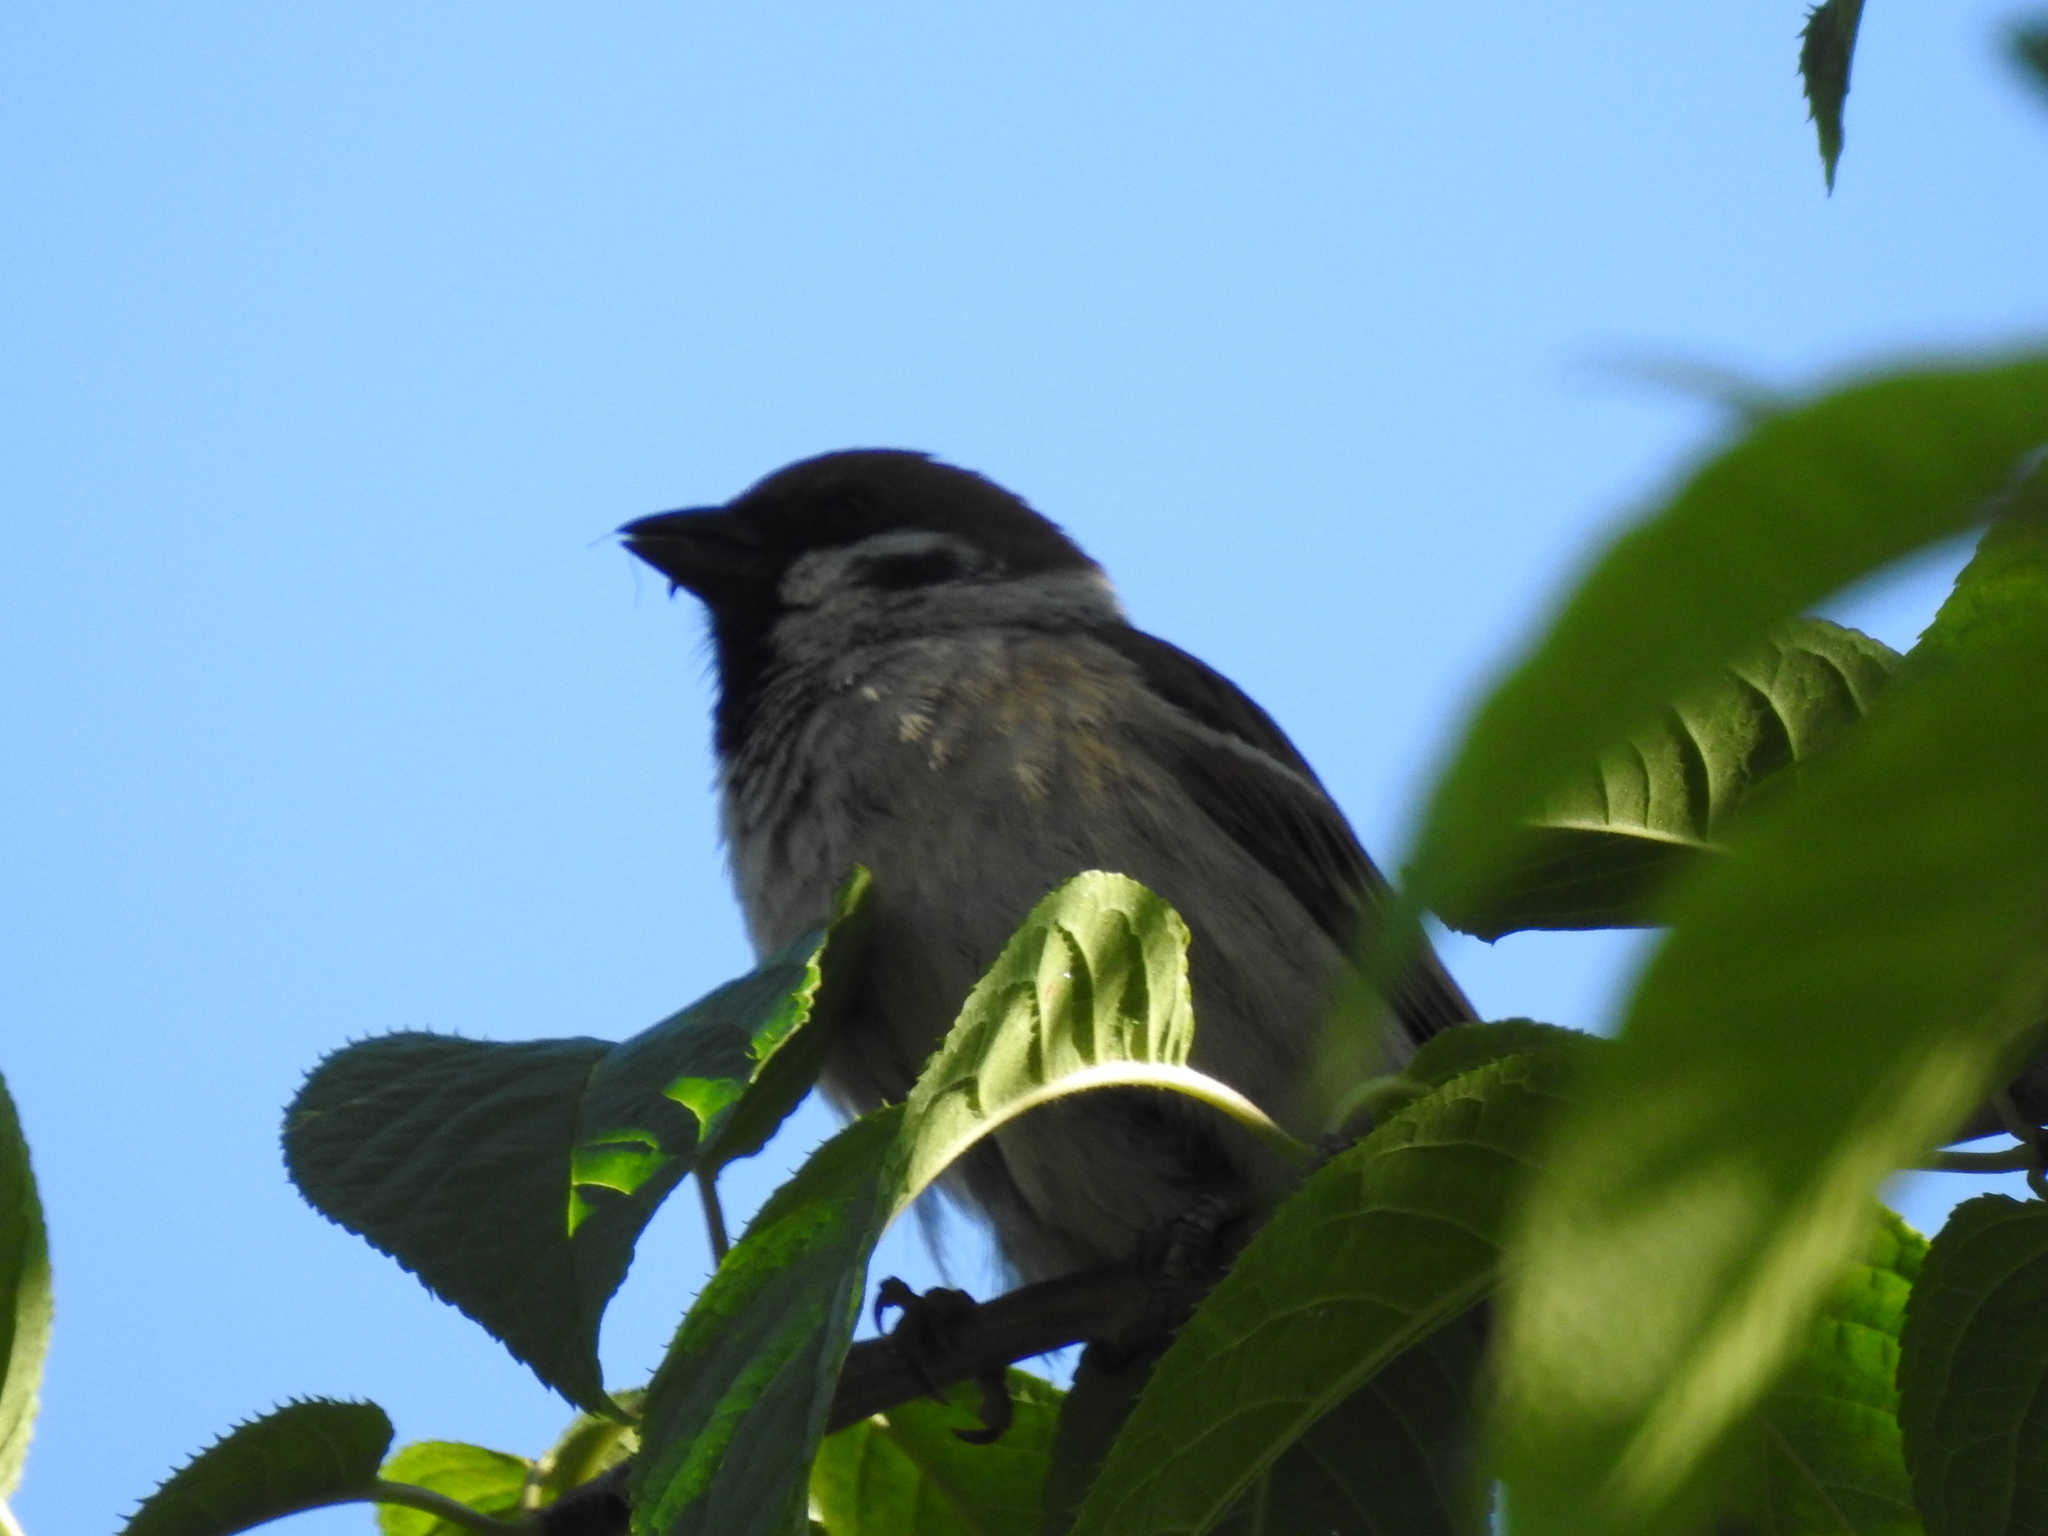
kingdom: Animalia
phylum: Chordata
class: Aves
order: Passeriformes
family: Passeridae
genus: Passer
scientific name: Passer montanus
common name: Eurasian tree sparrow
